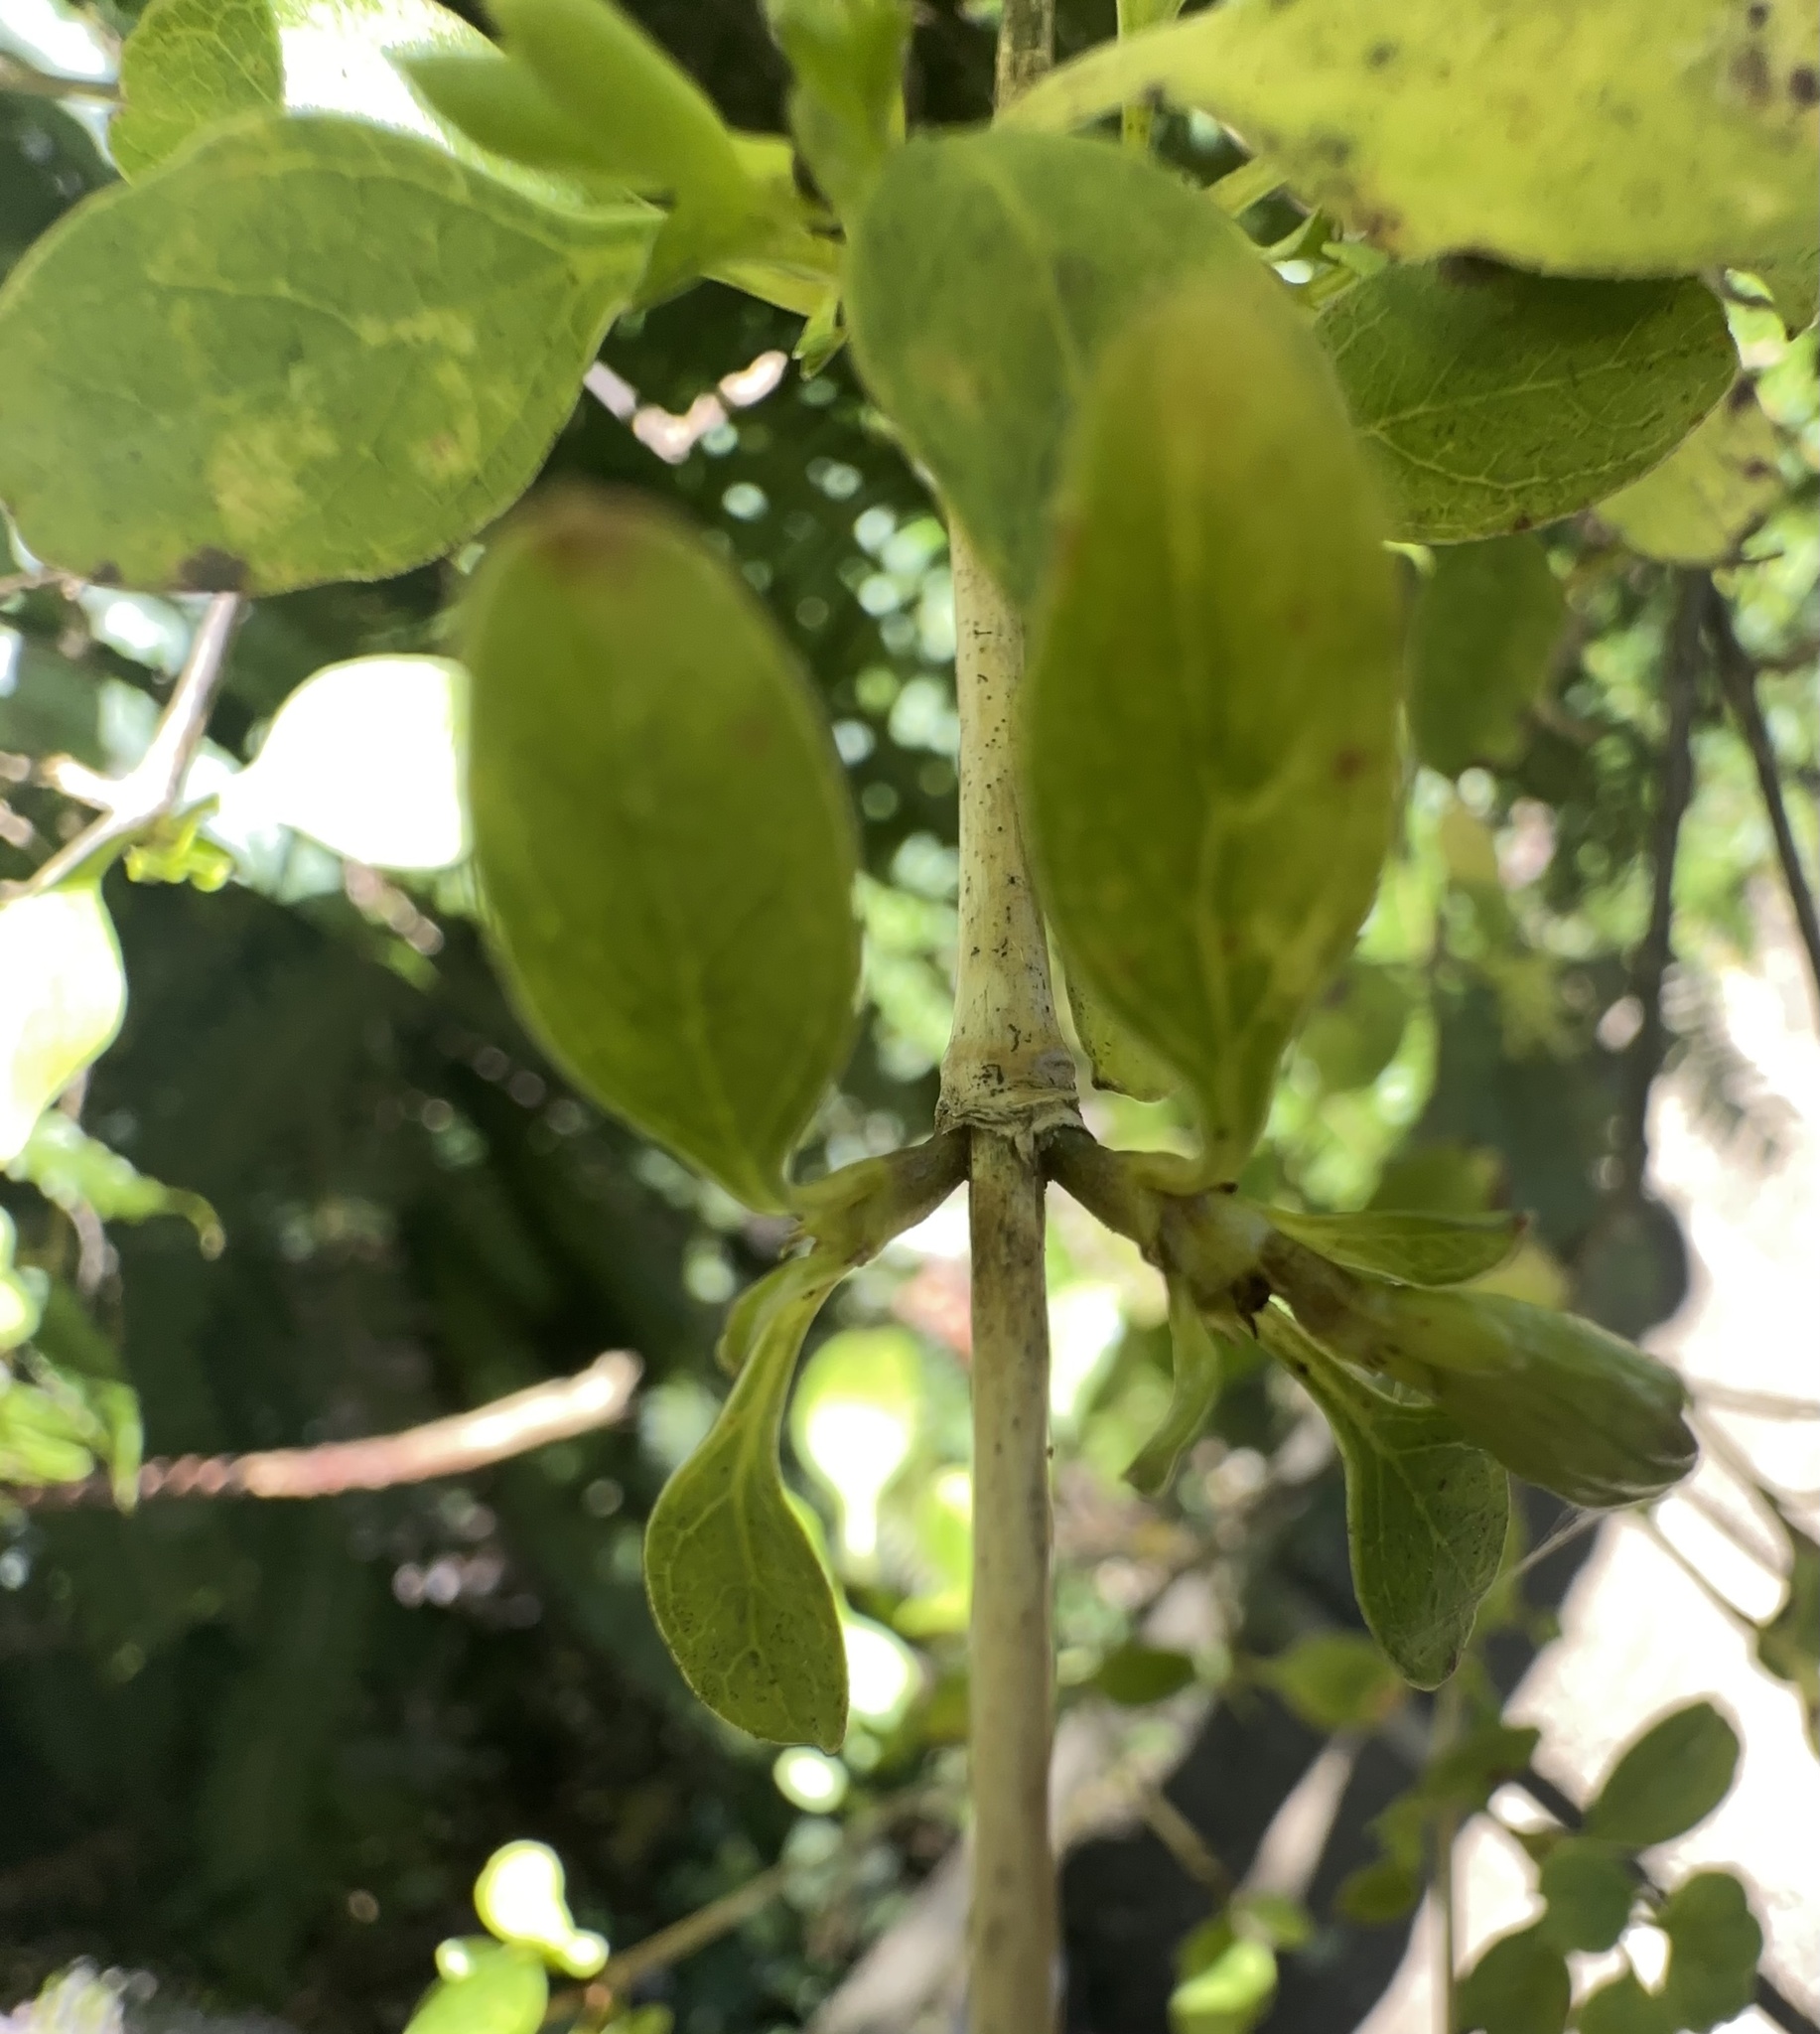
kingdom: Plantae
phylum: Tracheophyta
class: Magnoliopsida
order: Gentianales
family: Rubiaceae
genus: Coprosma
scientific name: Coprosma foetidissima
